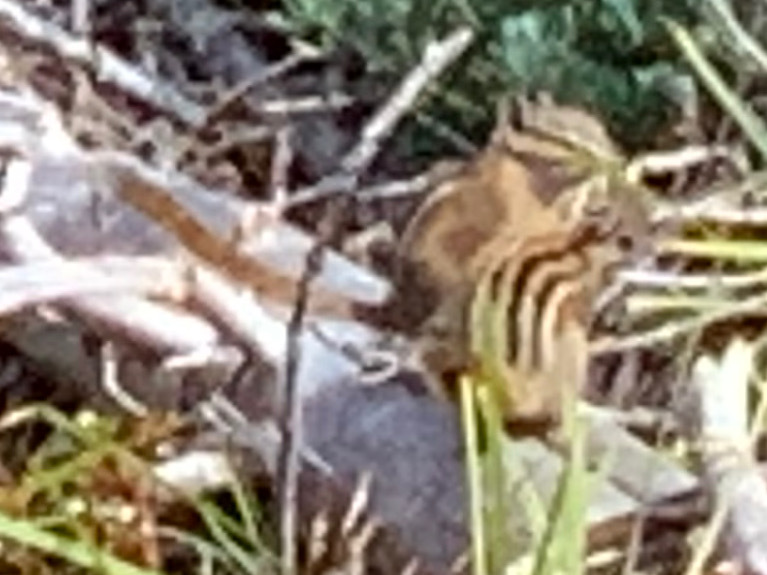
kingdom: Animalia
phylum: Chordata
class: Mammalia
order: Rodentia
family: Sciuridae
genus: Tamias
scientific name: Tamias amoenus
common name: Yellow-pine chipmunk
